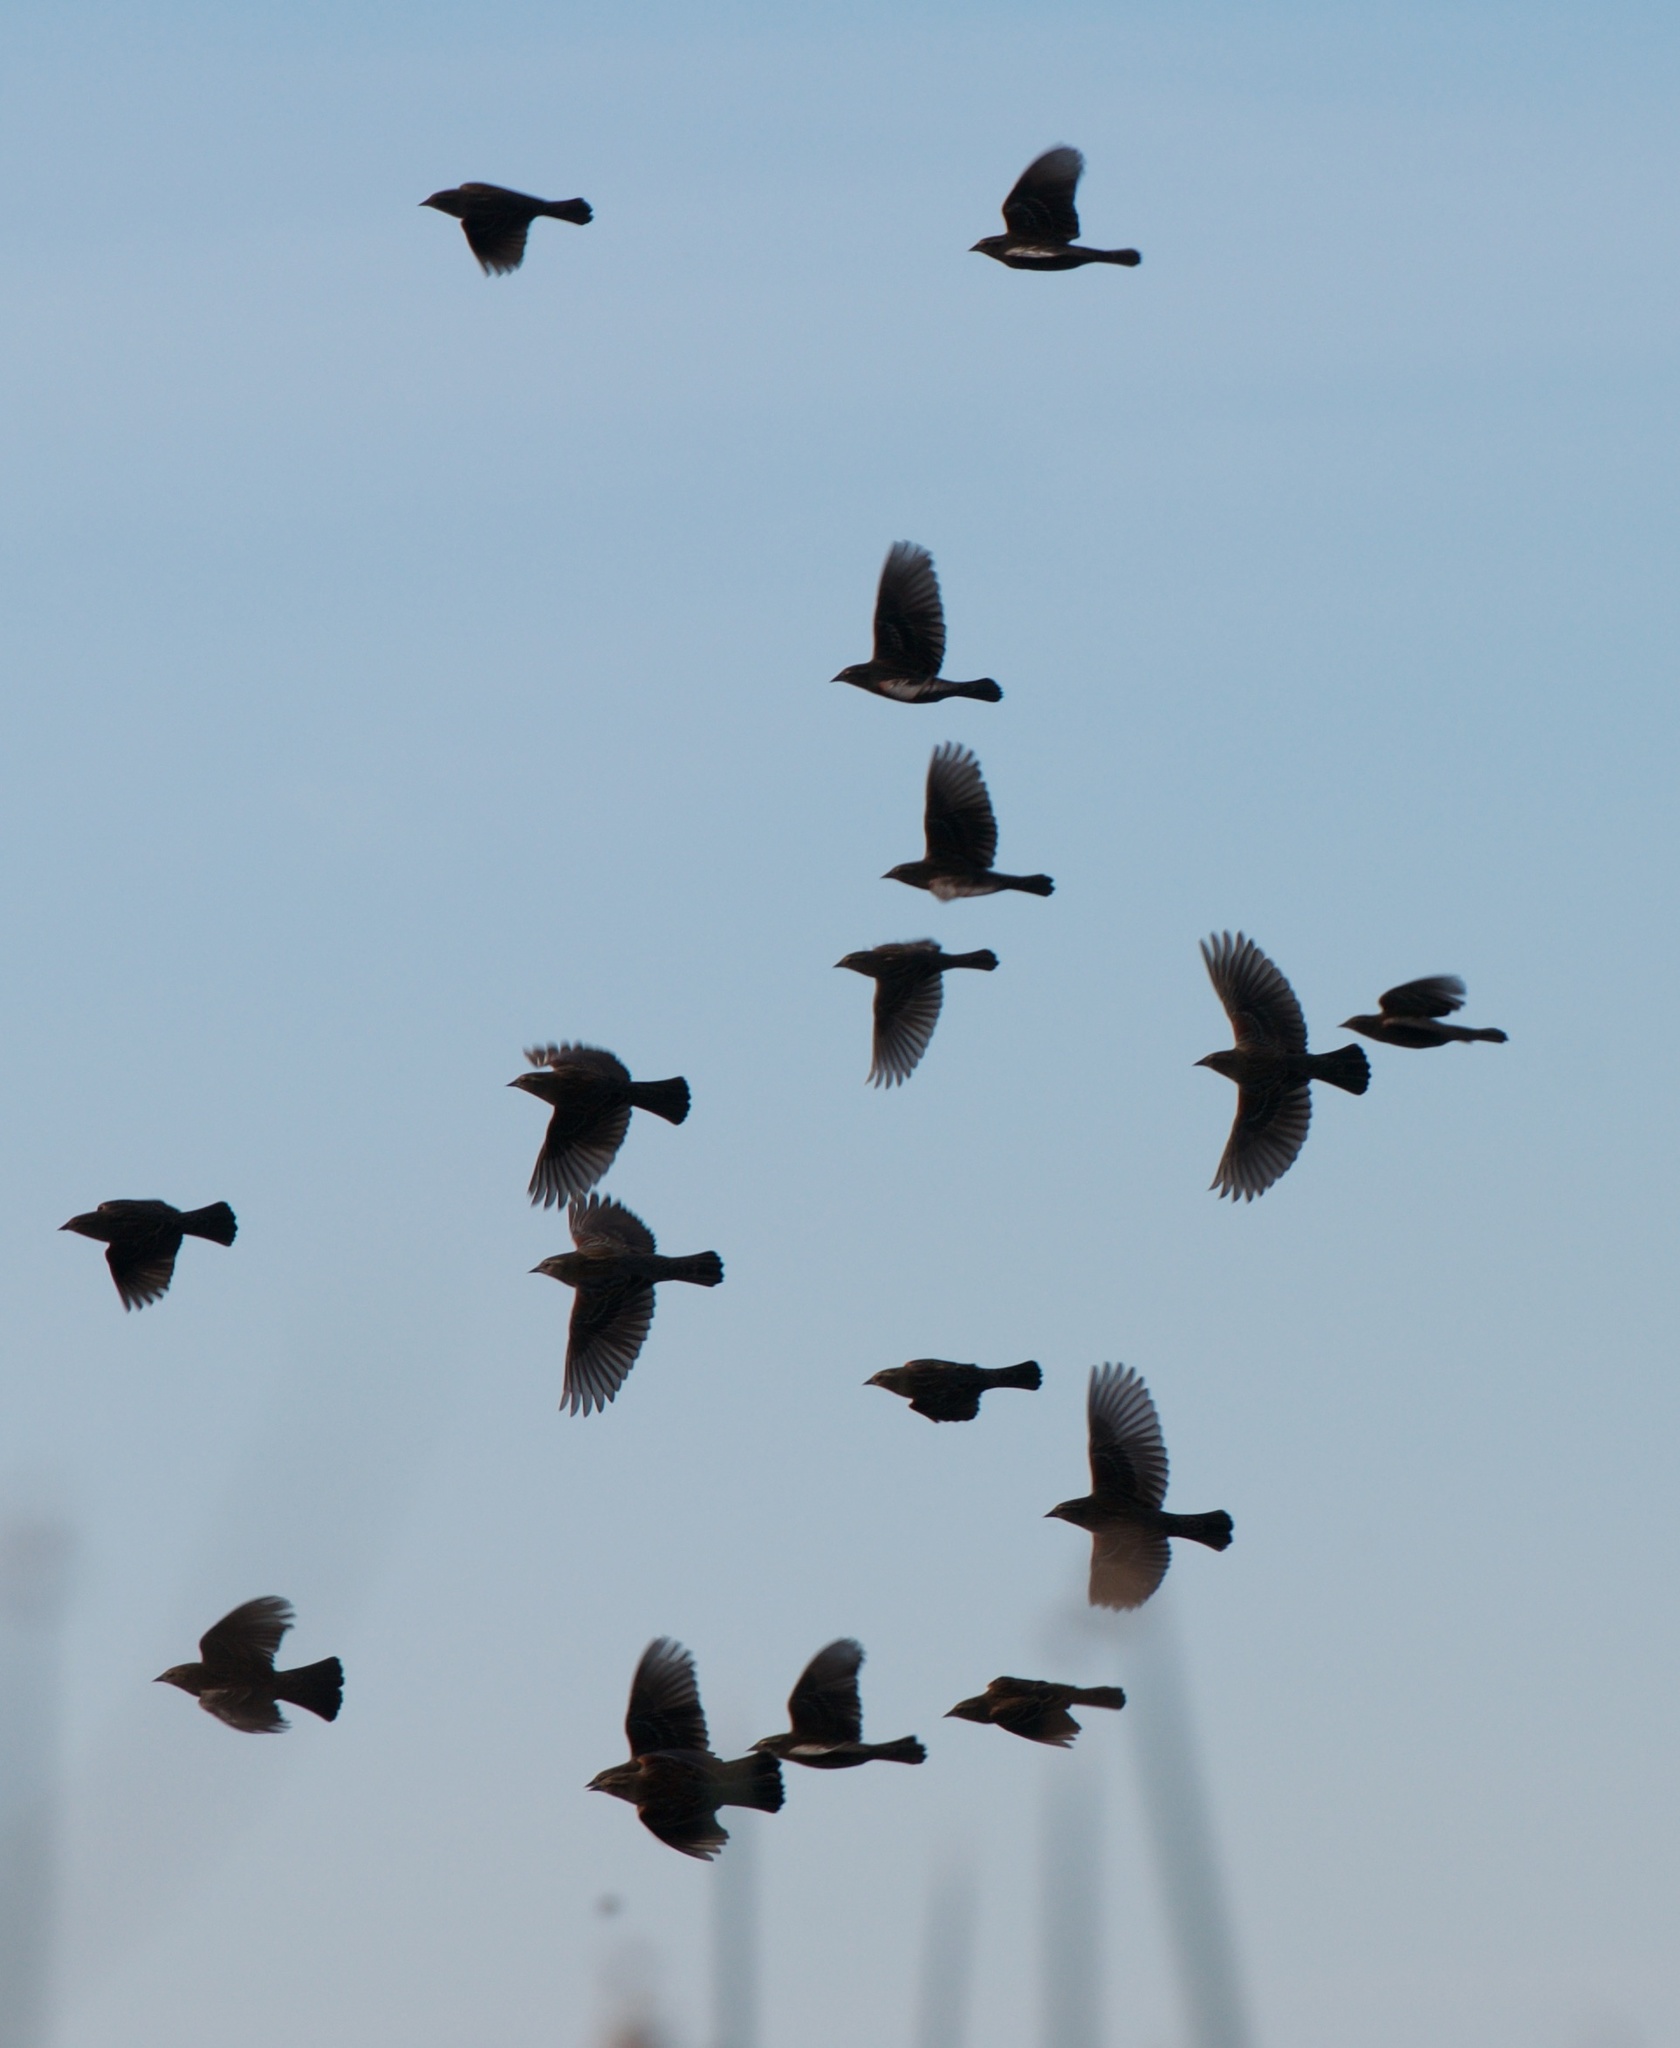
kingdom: Animalia
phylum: Chordata
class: Aves
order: Passeriformes
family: Icteridae
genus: Agelaius
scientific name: Agelaius phoeniceus
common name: Red-winged blackbird
